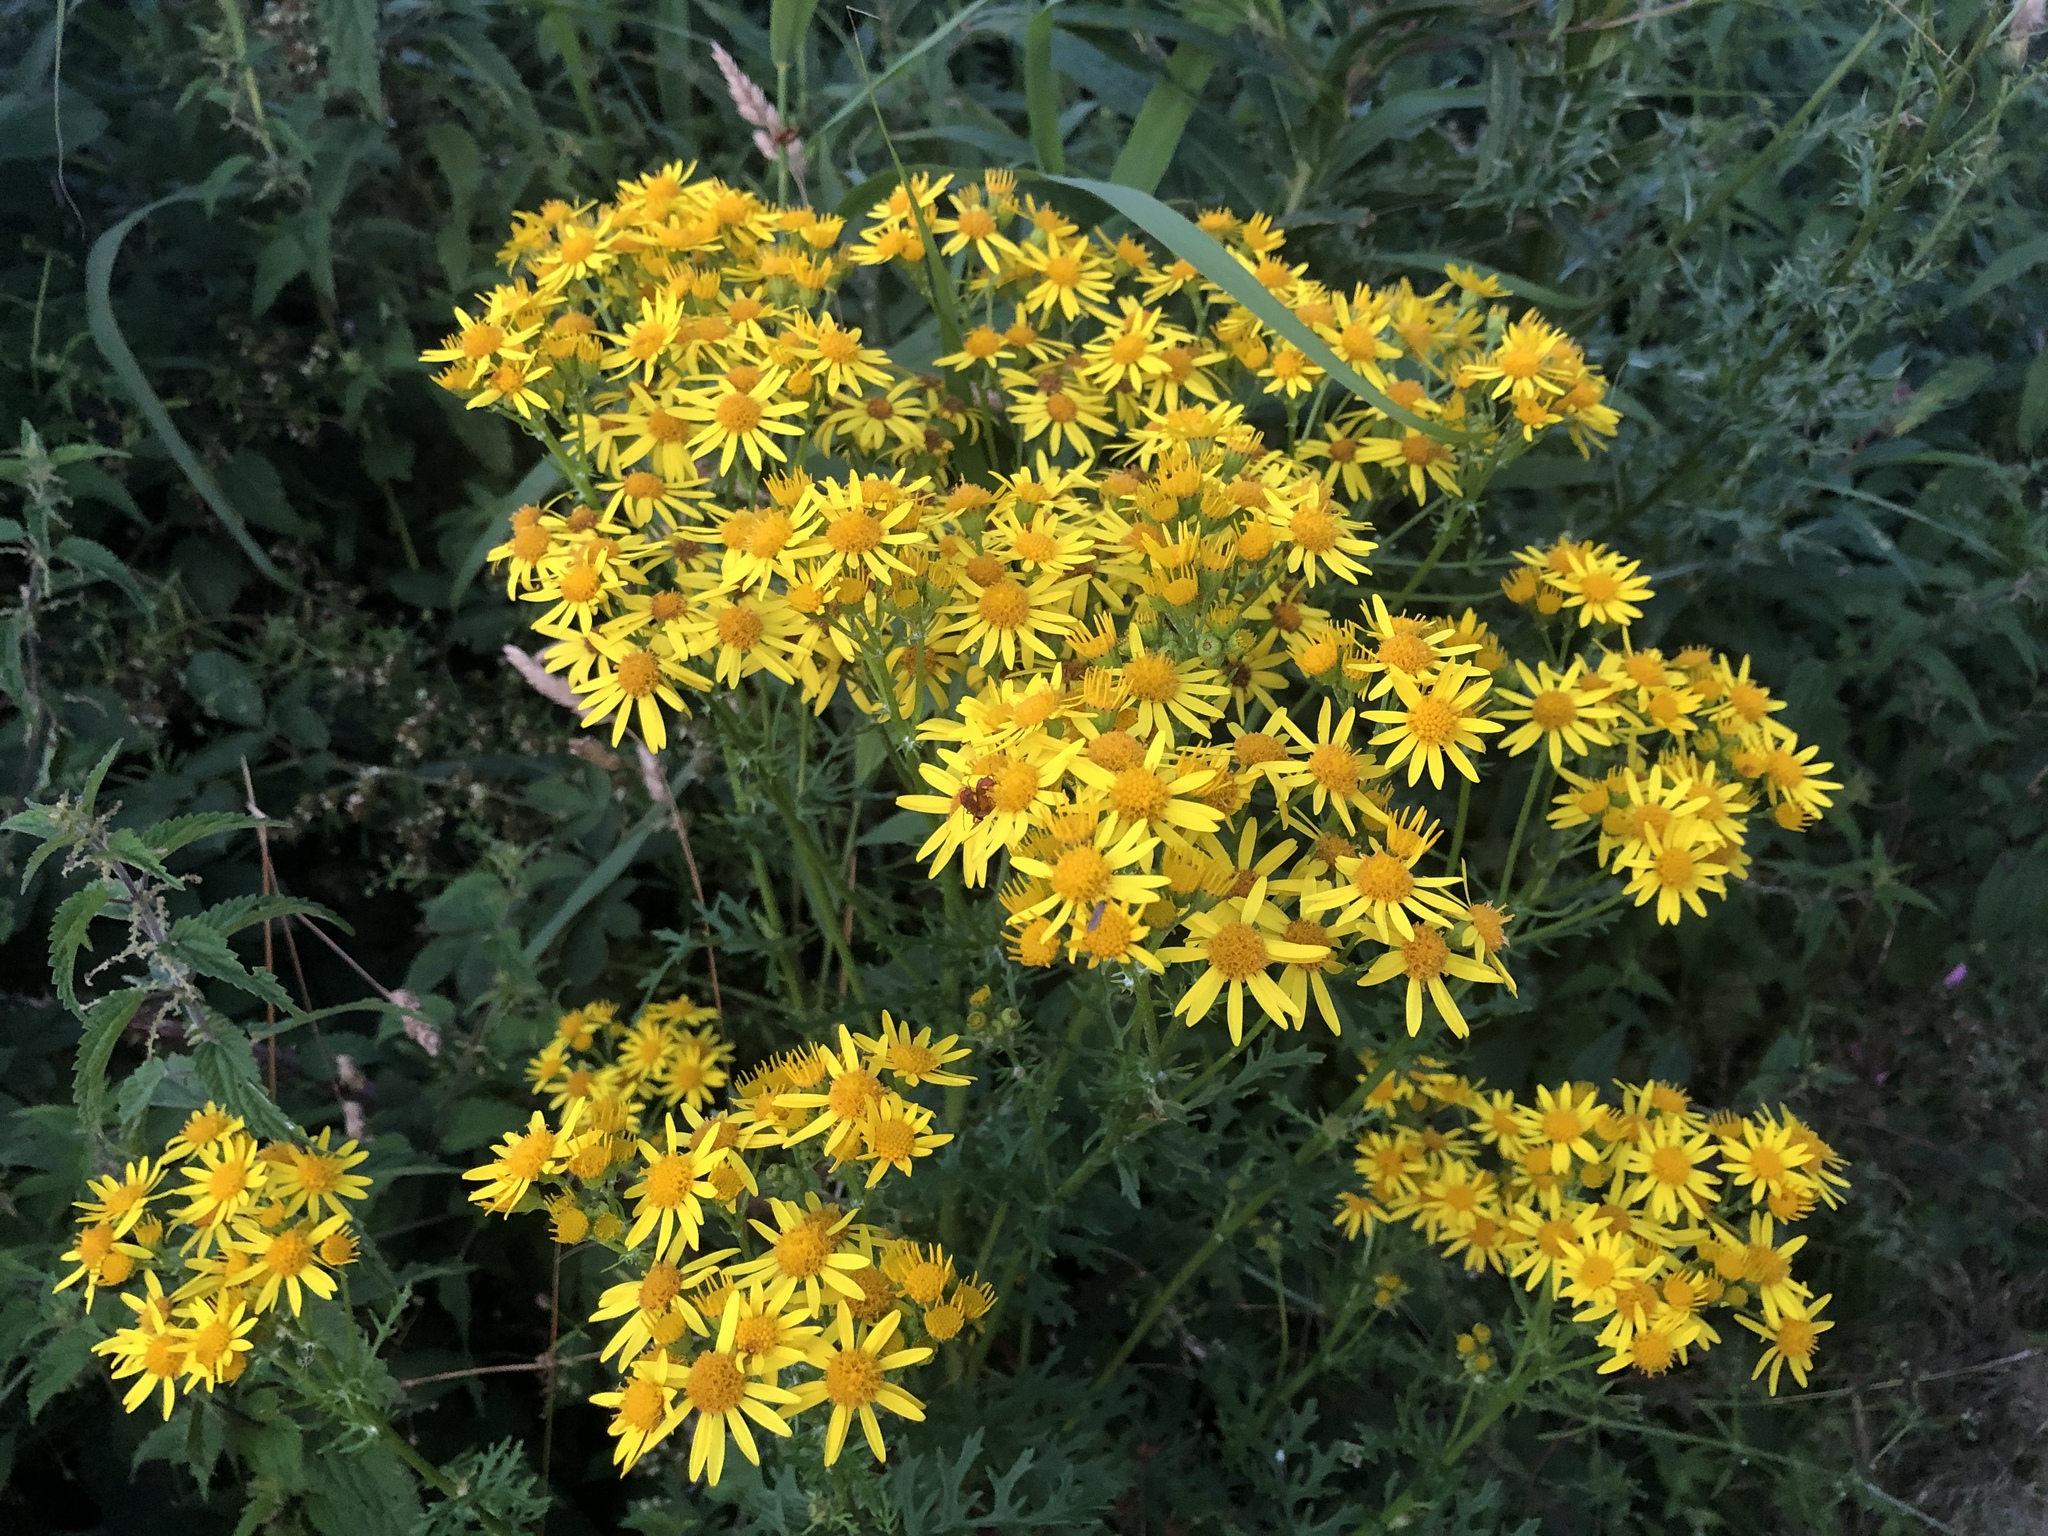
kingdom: Plantae
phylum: Tracheophyta
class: Magnoliopsida
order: Asterales
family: Asteraceae
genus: Jacobaea
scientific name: Jacobaea vulgaris
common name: Stinking willie
